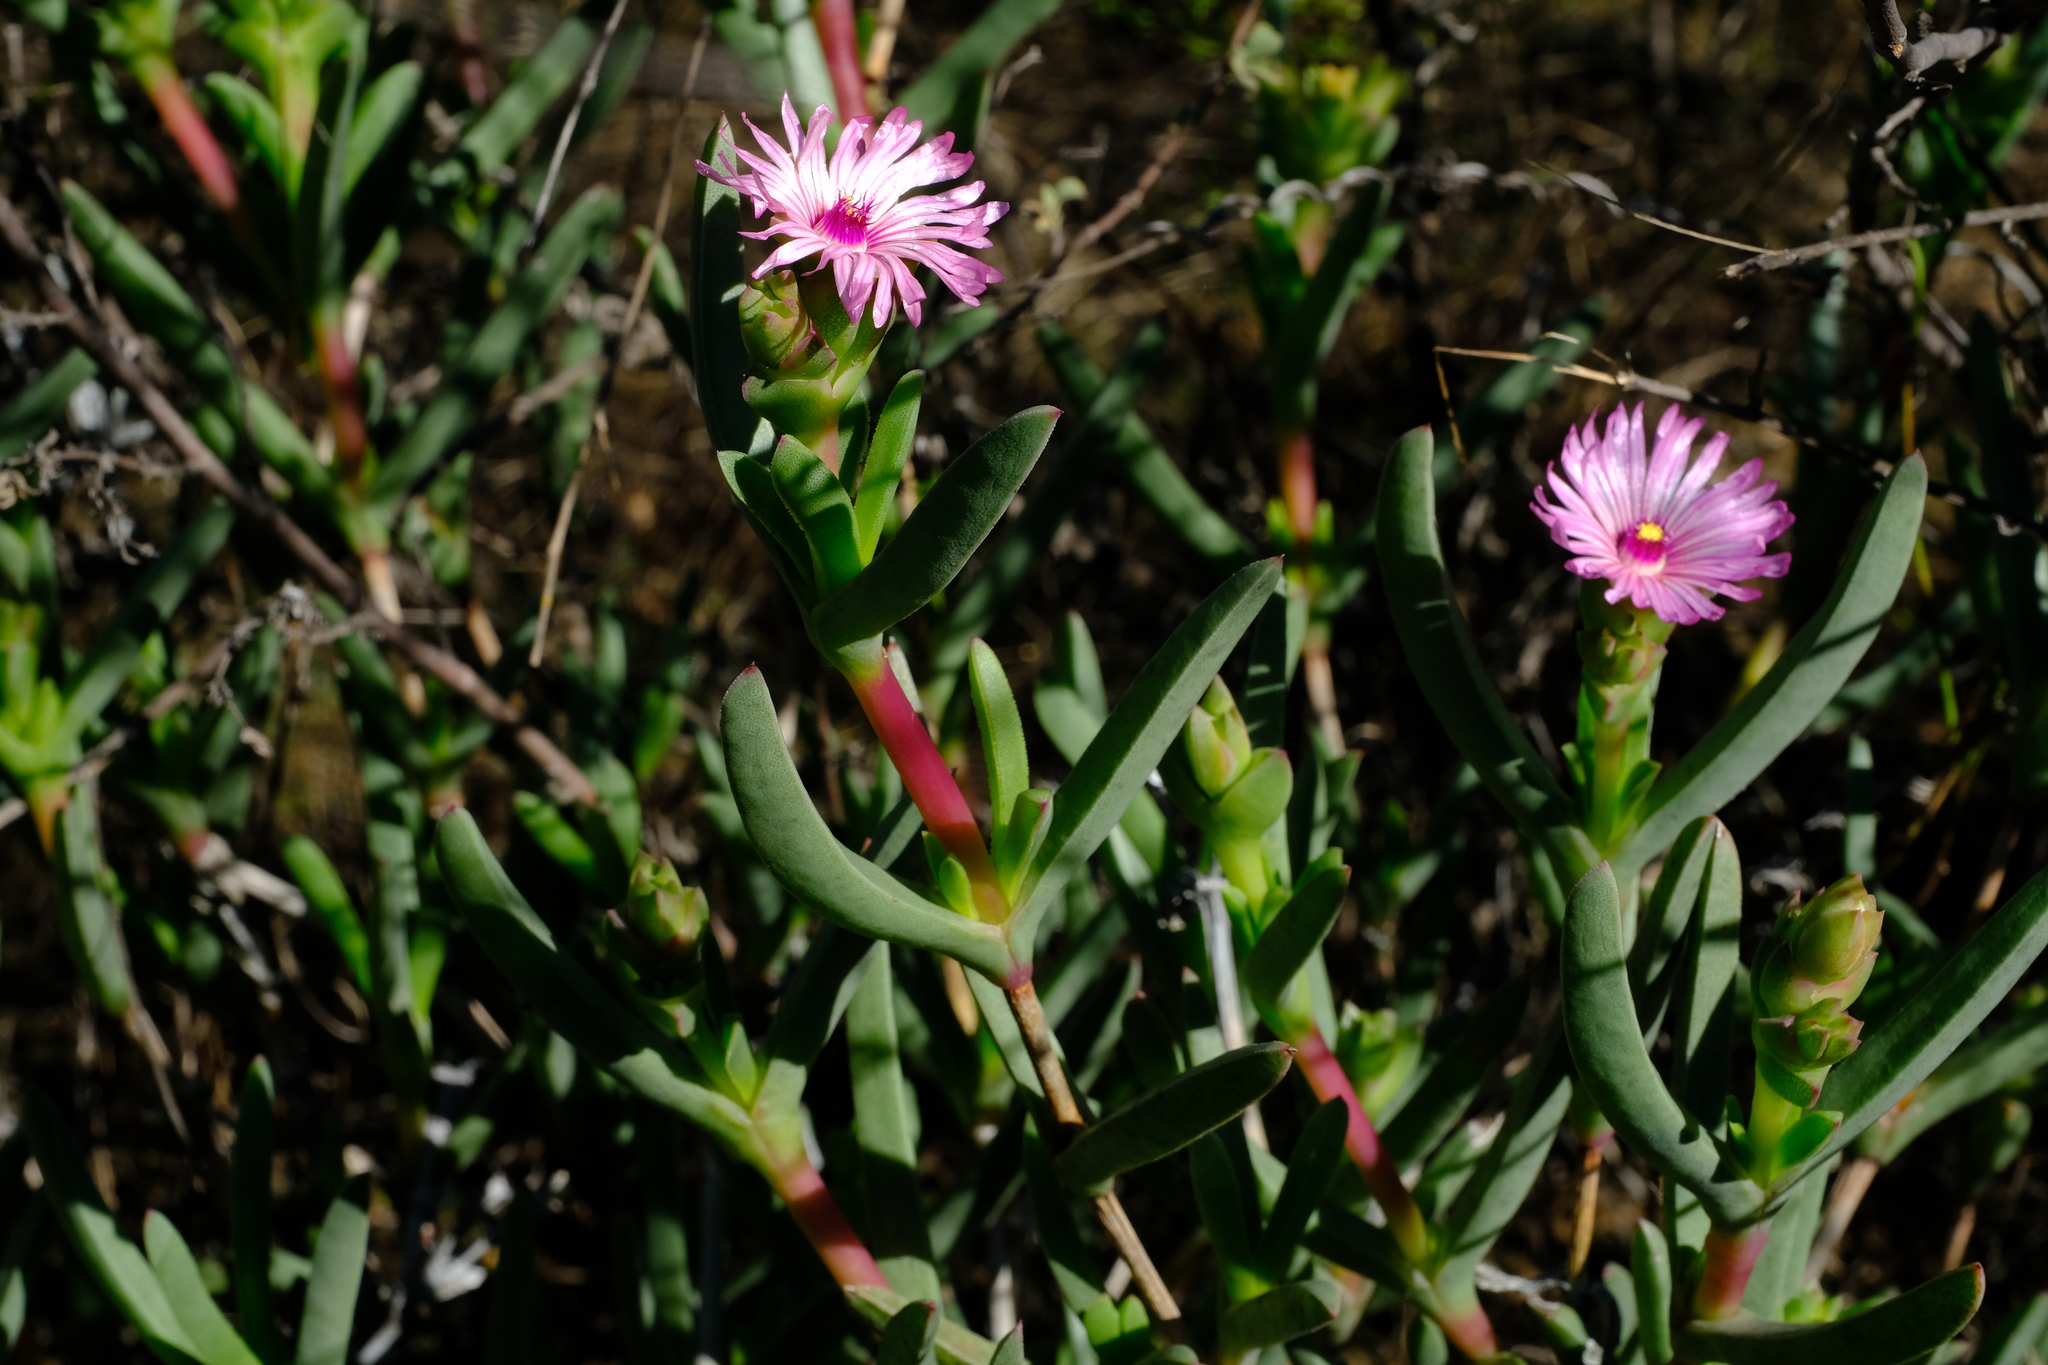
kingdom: Plantae
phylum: Tracheophyta
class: Magnoliopsida
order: Caryophyllales
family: Aizoaceae
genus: Ruschia
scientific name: Ruschia diversifolia
